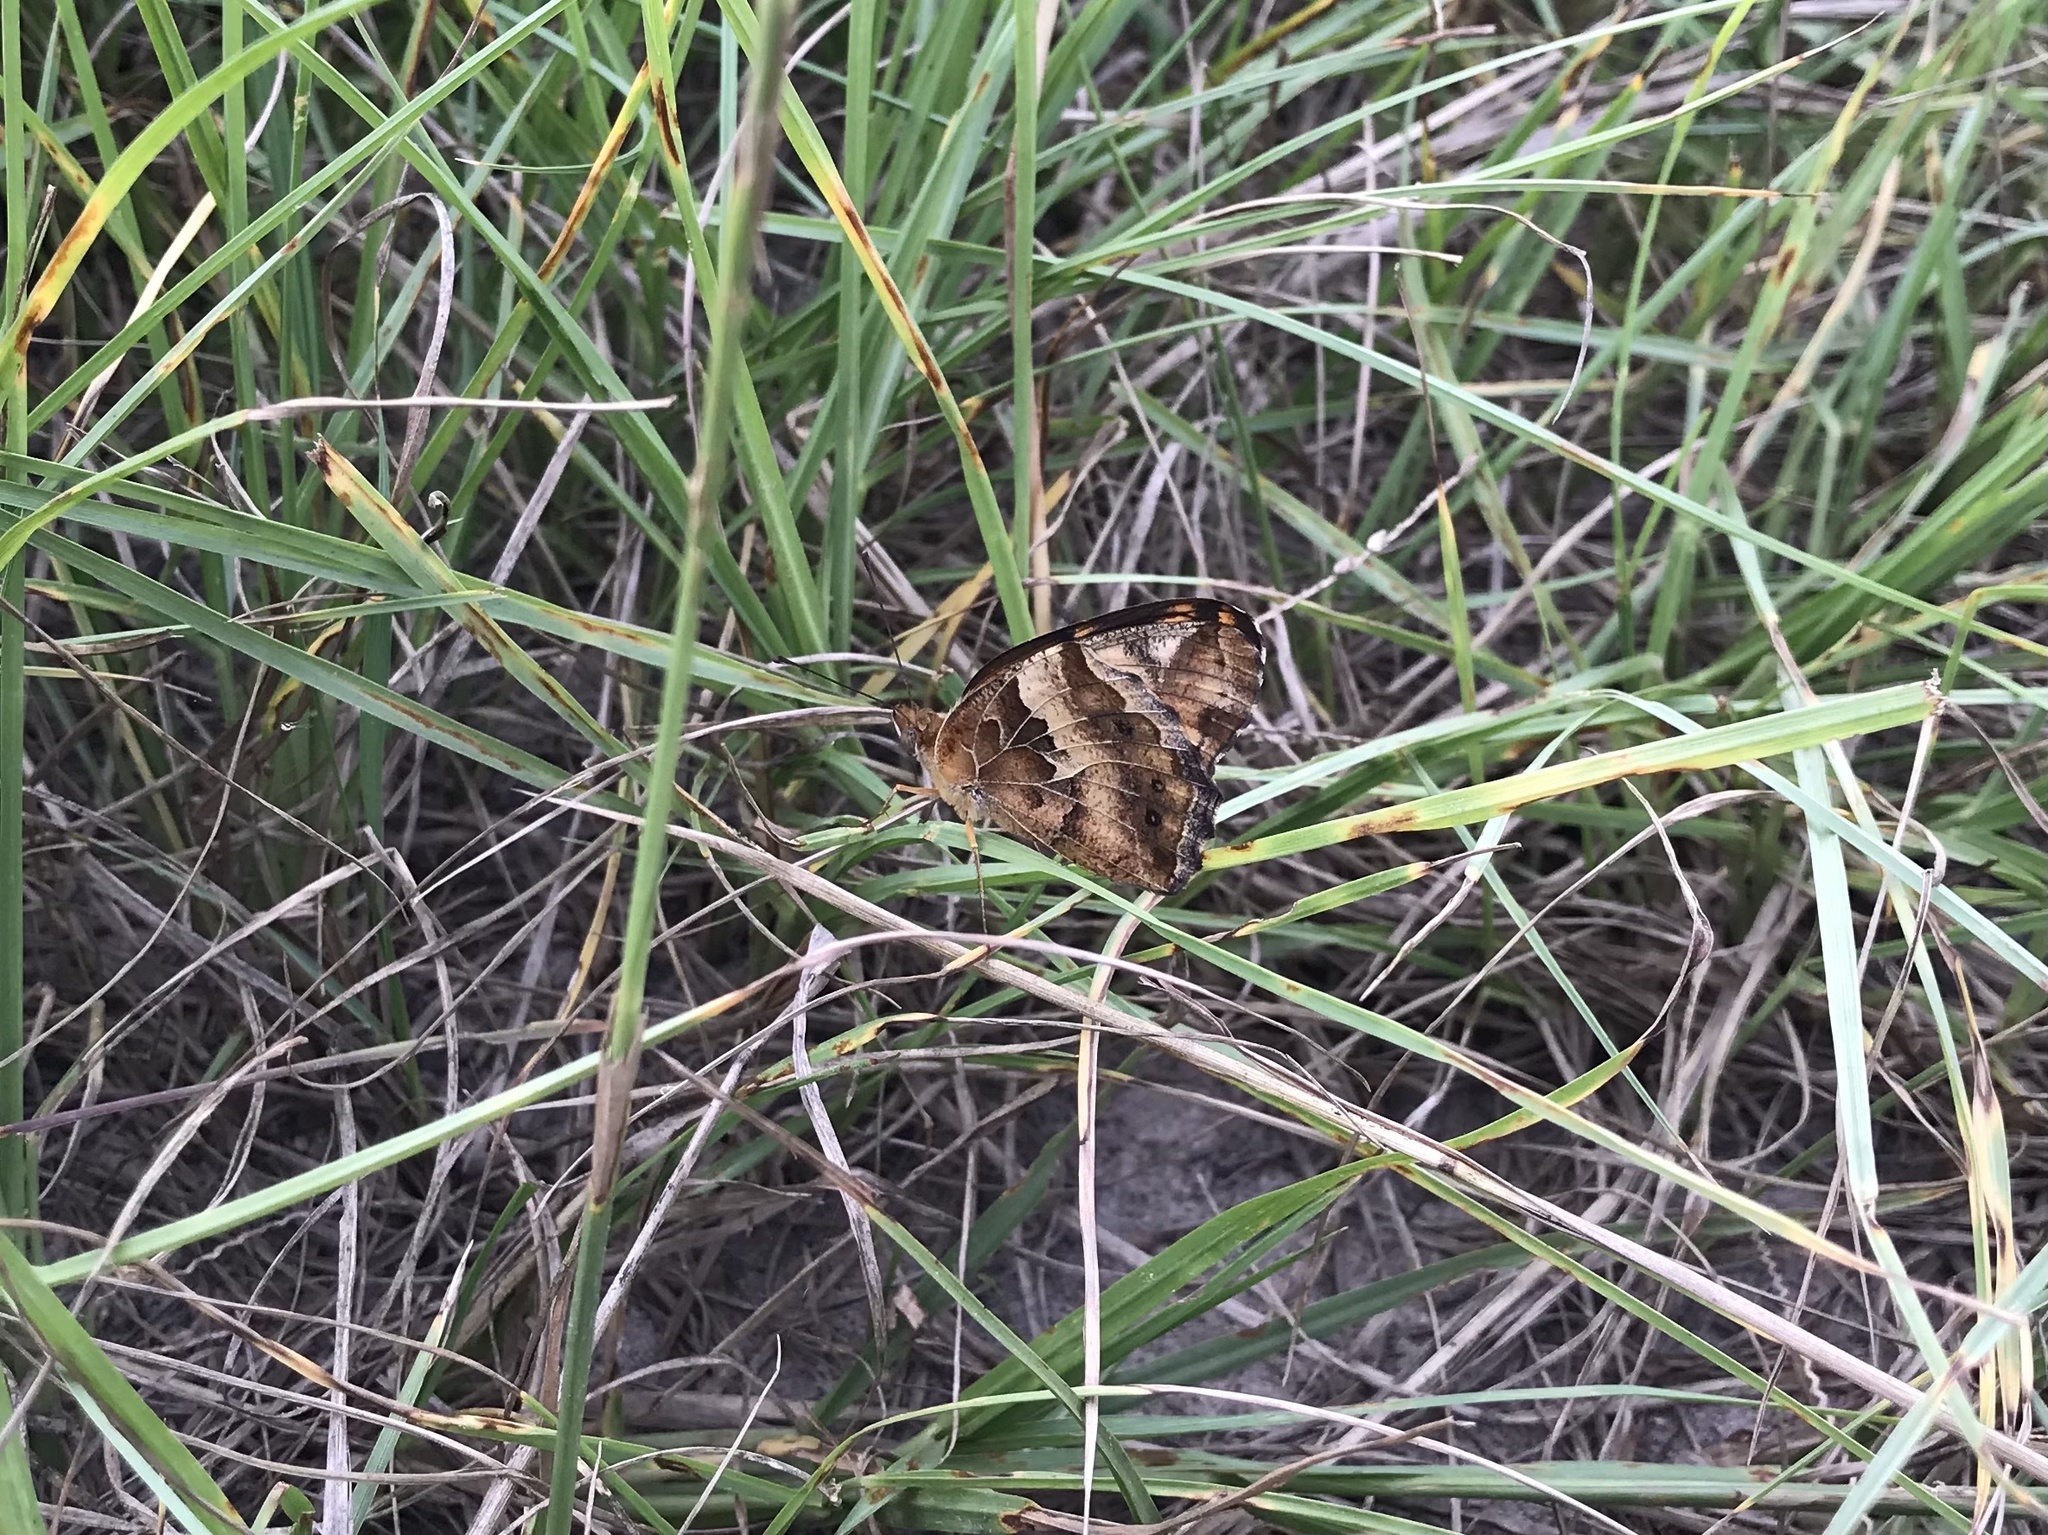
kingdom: Animalia
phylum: Arthropoda
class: Insecta
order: Lepidoptera
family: Nymphalidae
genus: Euptoieta
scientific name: Euptoieta claudia
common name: Variegated fritillary
